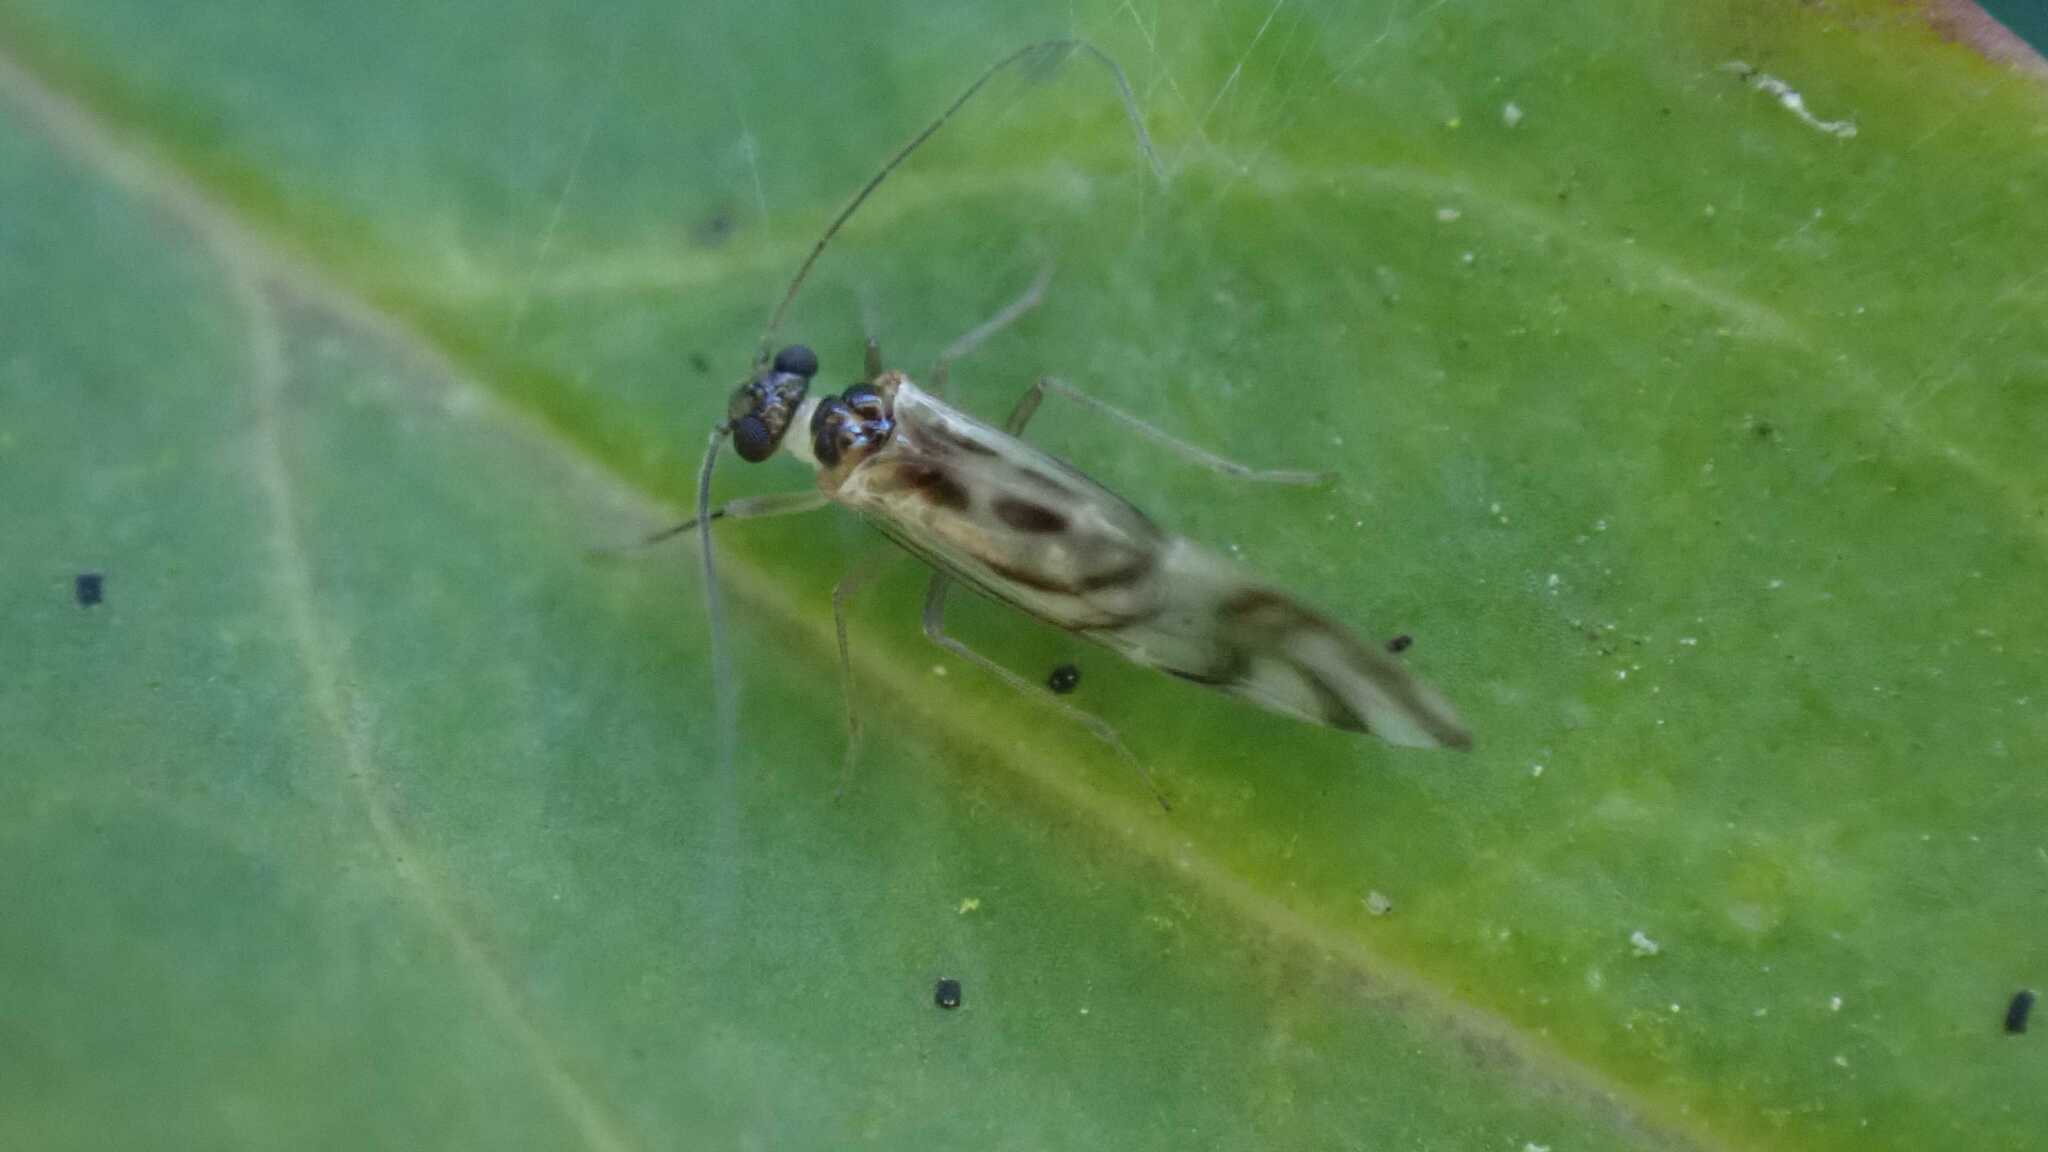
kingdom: Animalia
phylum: Arthropoda
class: Insecta
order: Psocodea
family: Stenopsocidae
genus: Graphopsocus
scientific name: Graphopsocus cruciatus
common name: Lizard bark louse
